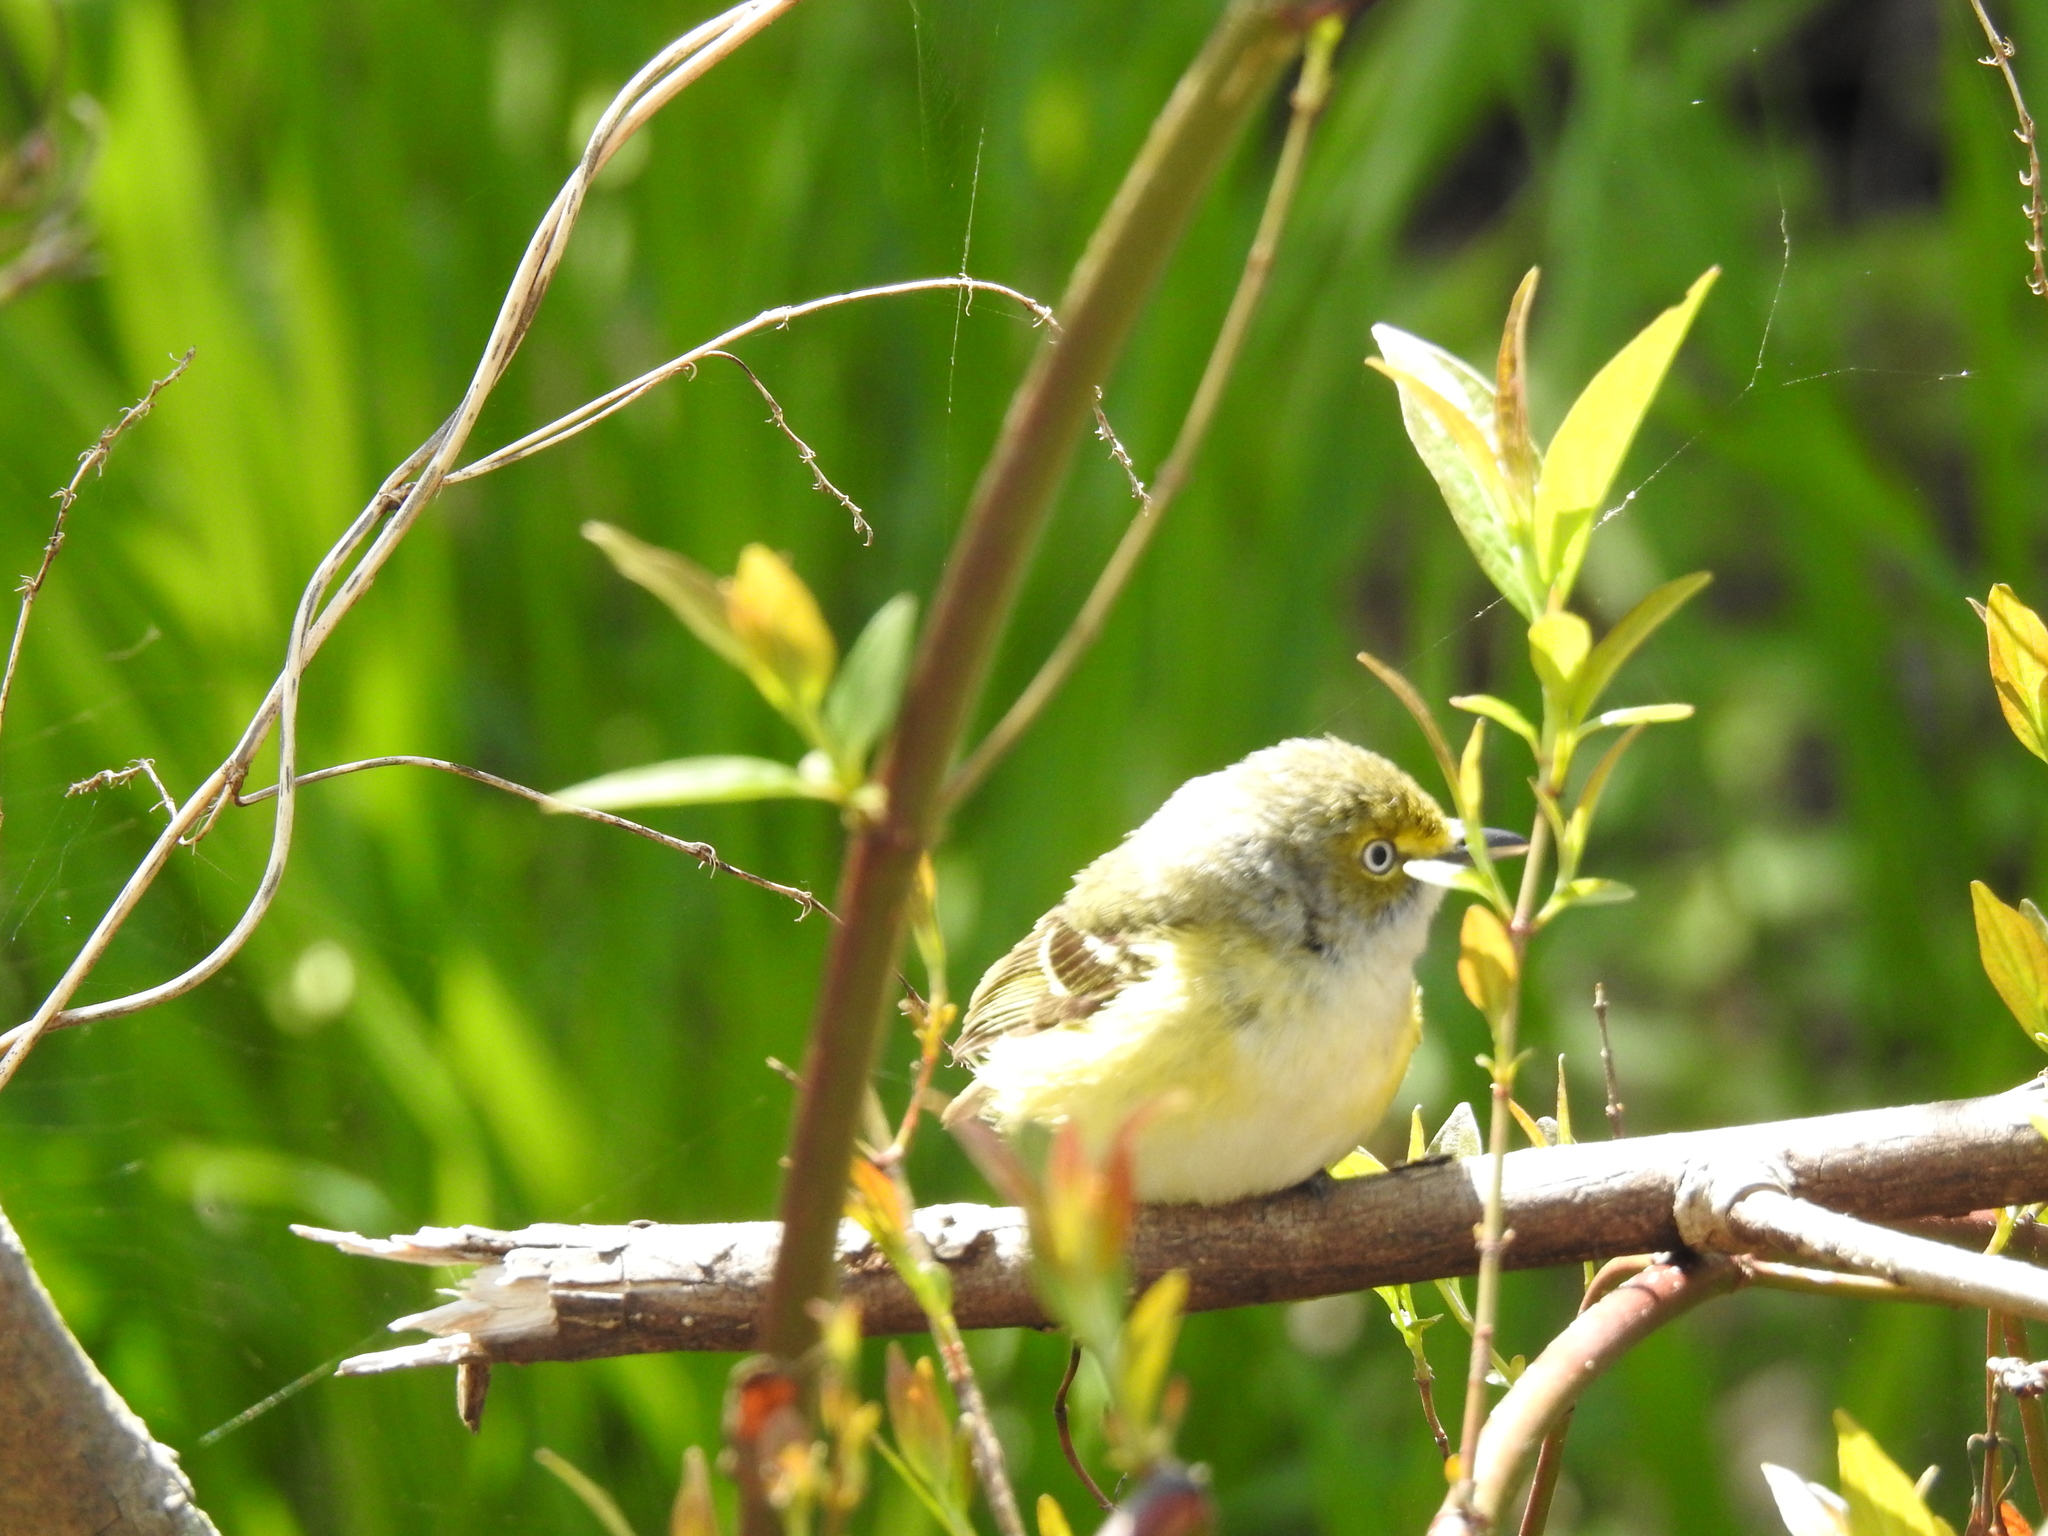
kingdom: Animalia
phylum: Chordata
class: Aves
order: Passeriformes
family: Vireonidae
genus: Vireo
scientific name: Vireo griseus
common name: White-eyed vireo
